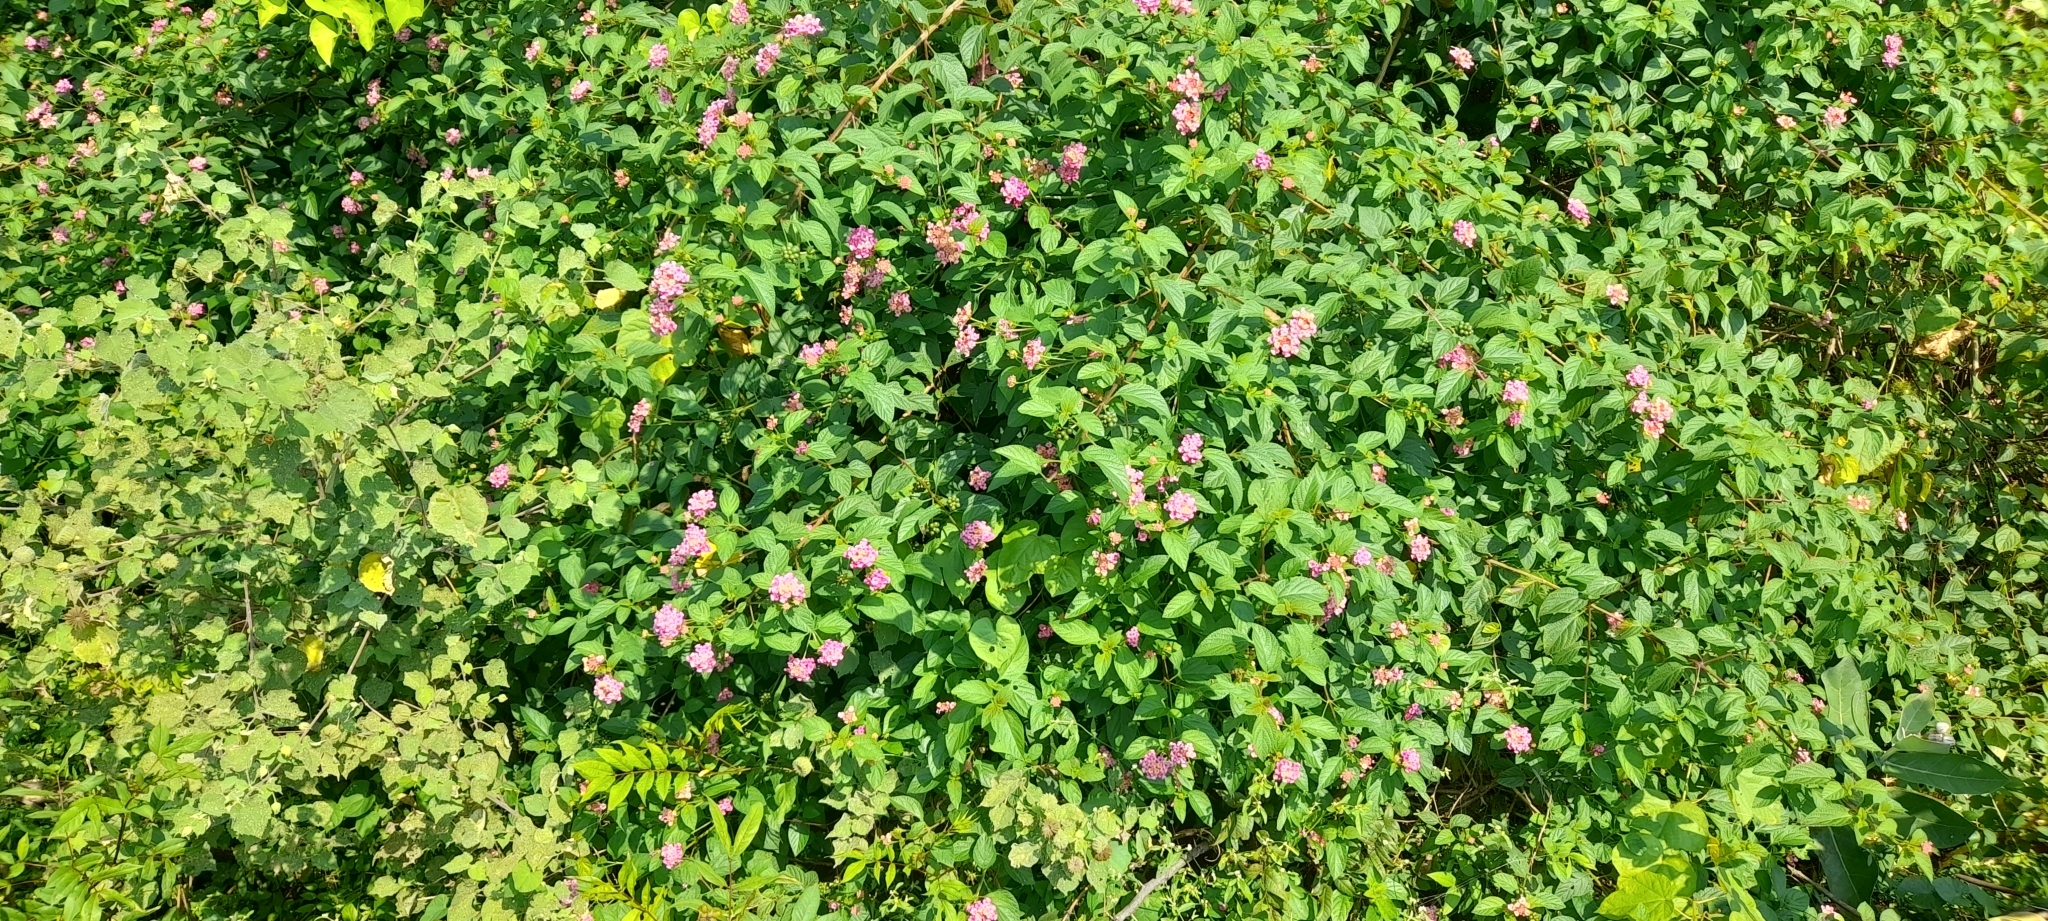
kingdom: Plantae
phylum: Tracheophyta
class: Magnoliopsida
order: Lamiales
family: Verbenaceae
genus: Lantana
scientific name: Lantana camara
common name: Lantana
